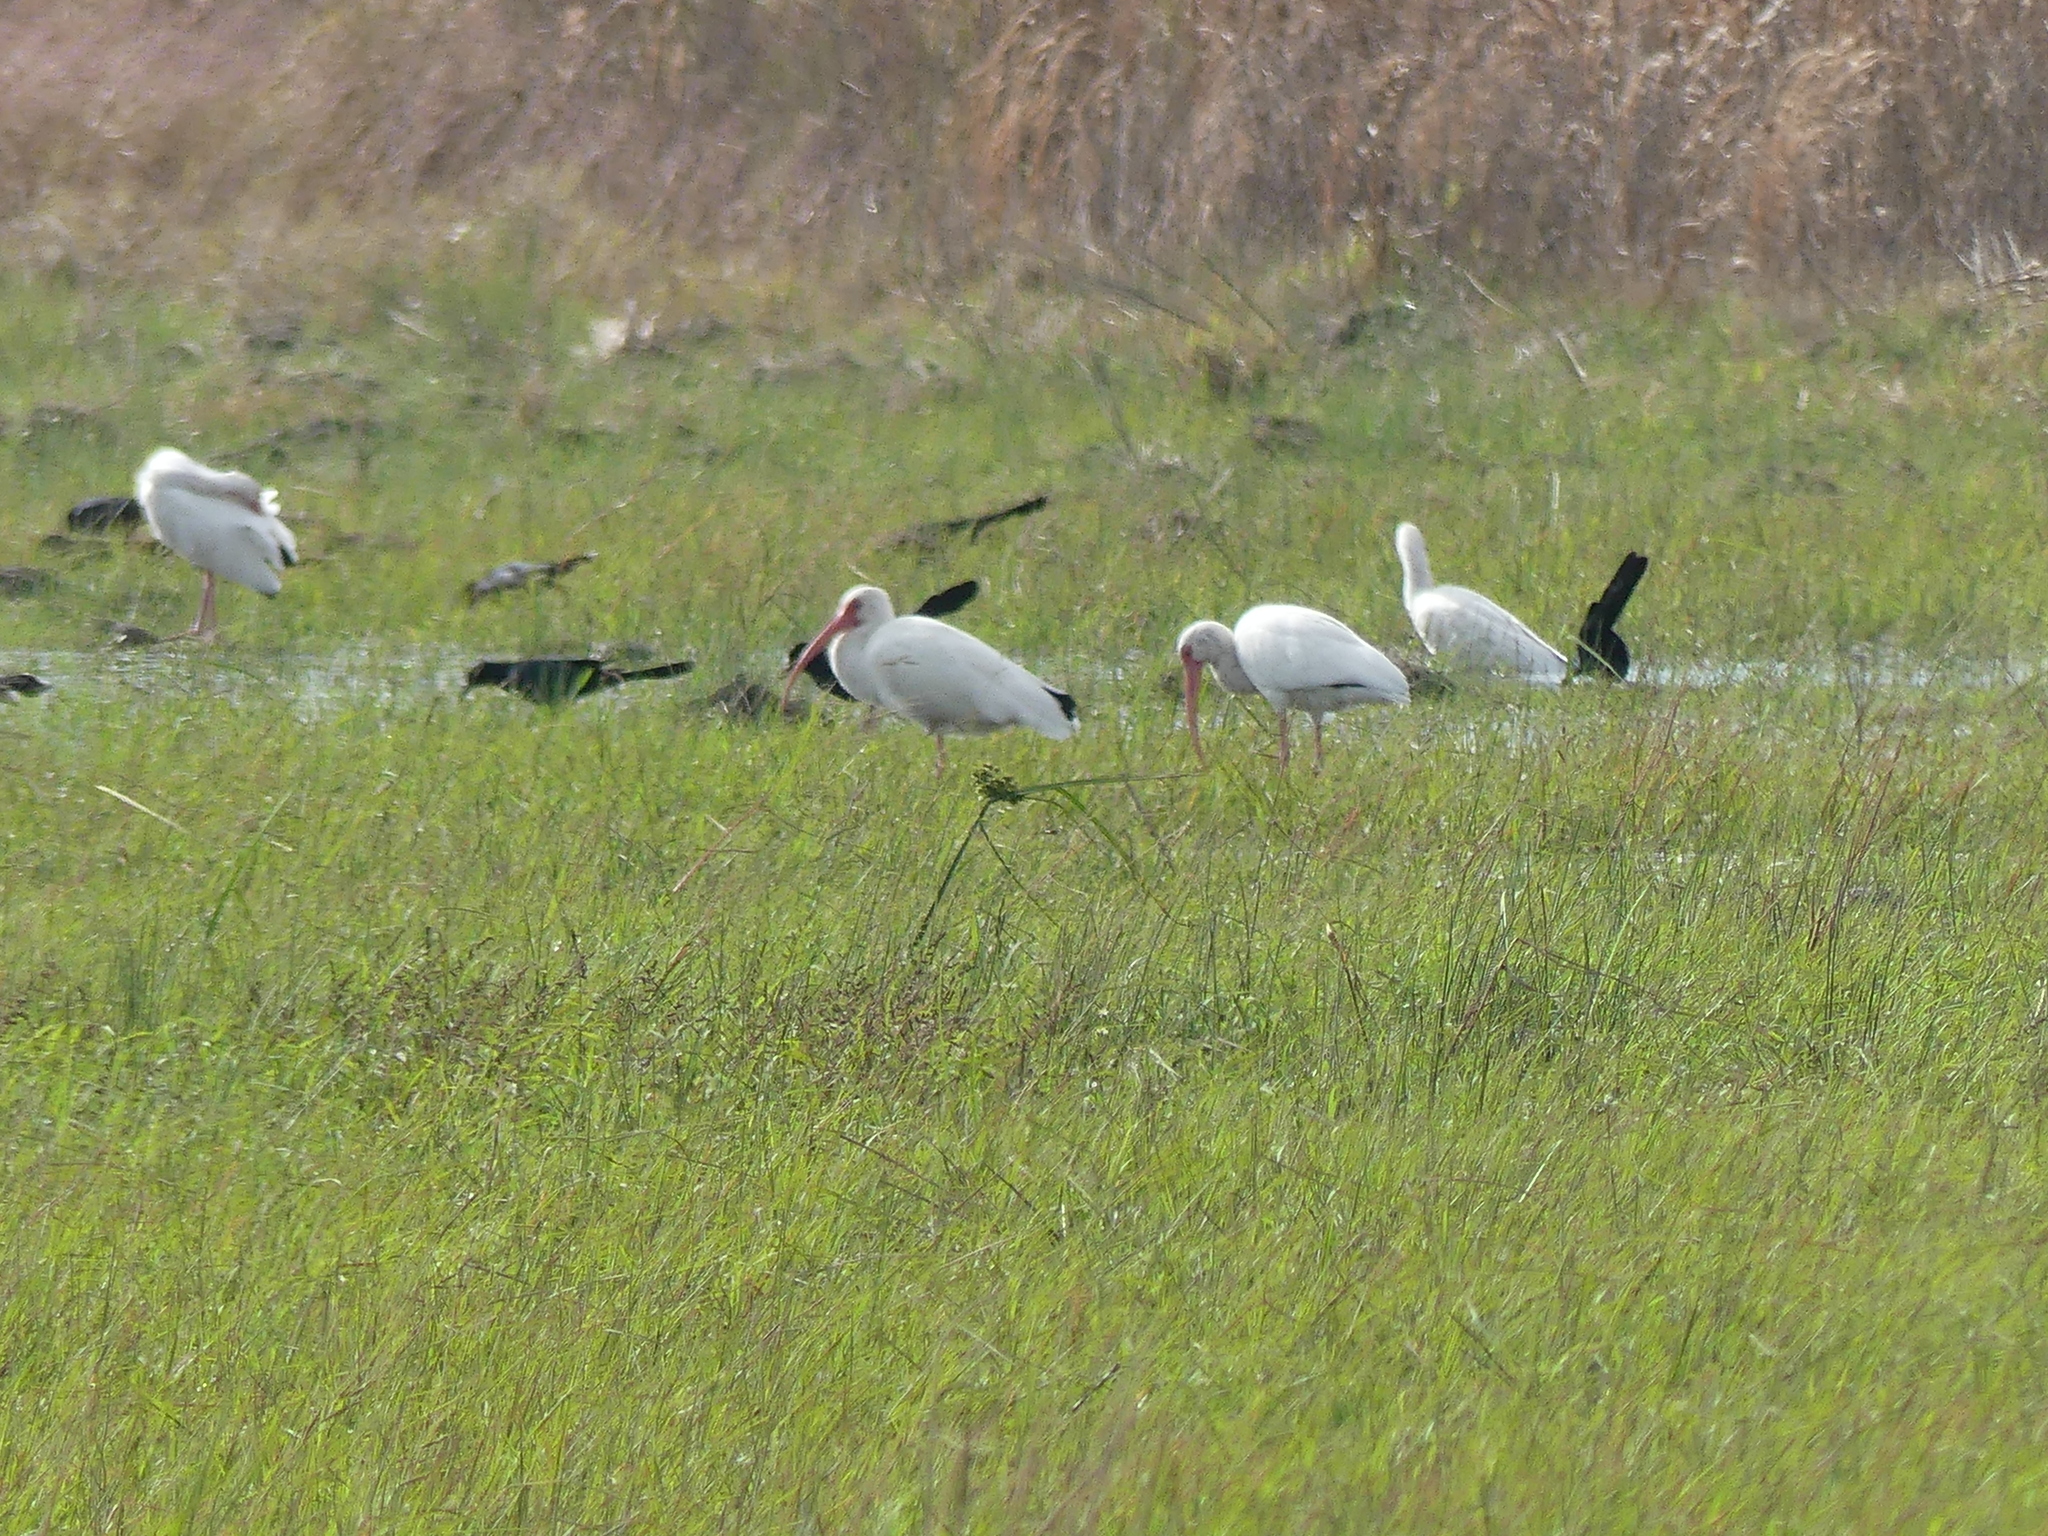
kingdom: Animalia
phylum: Chordata
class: Aves
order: Pelecaniformes
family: Threskiornithidae
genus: Eudocimus
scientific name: Eudocimus albus
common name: White ibis
